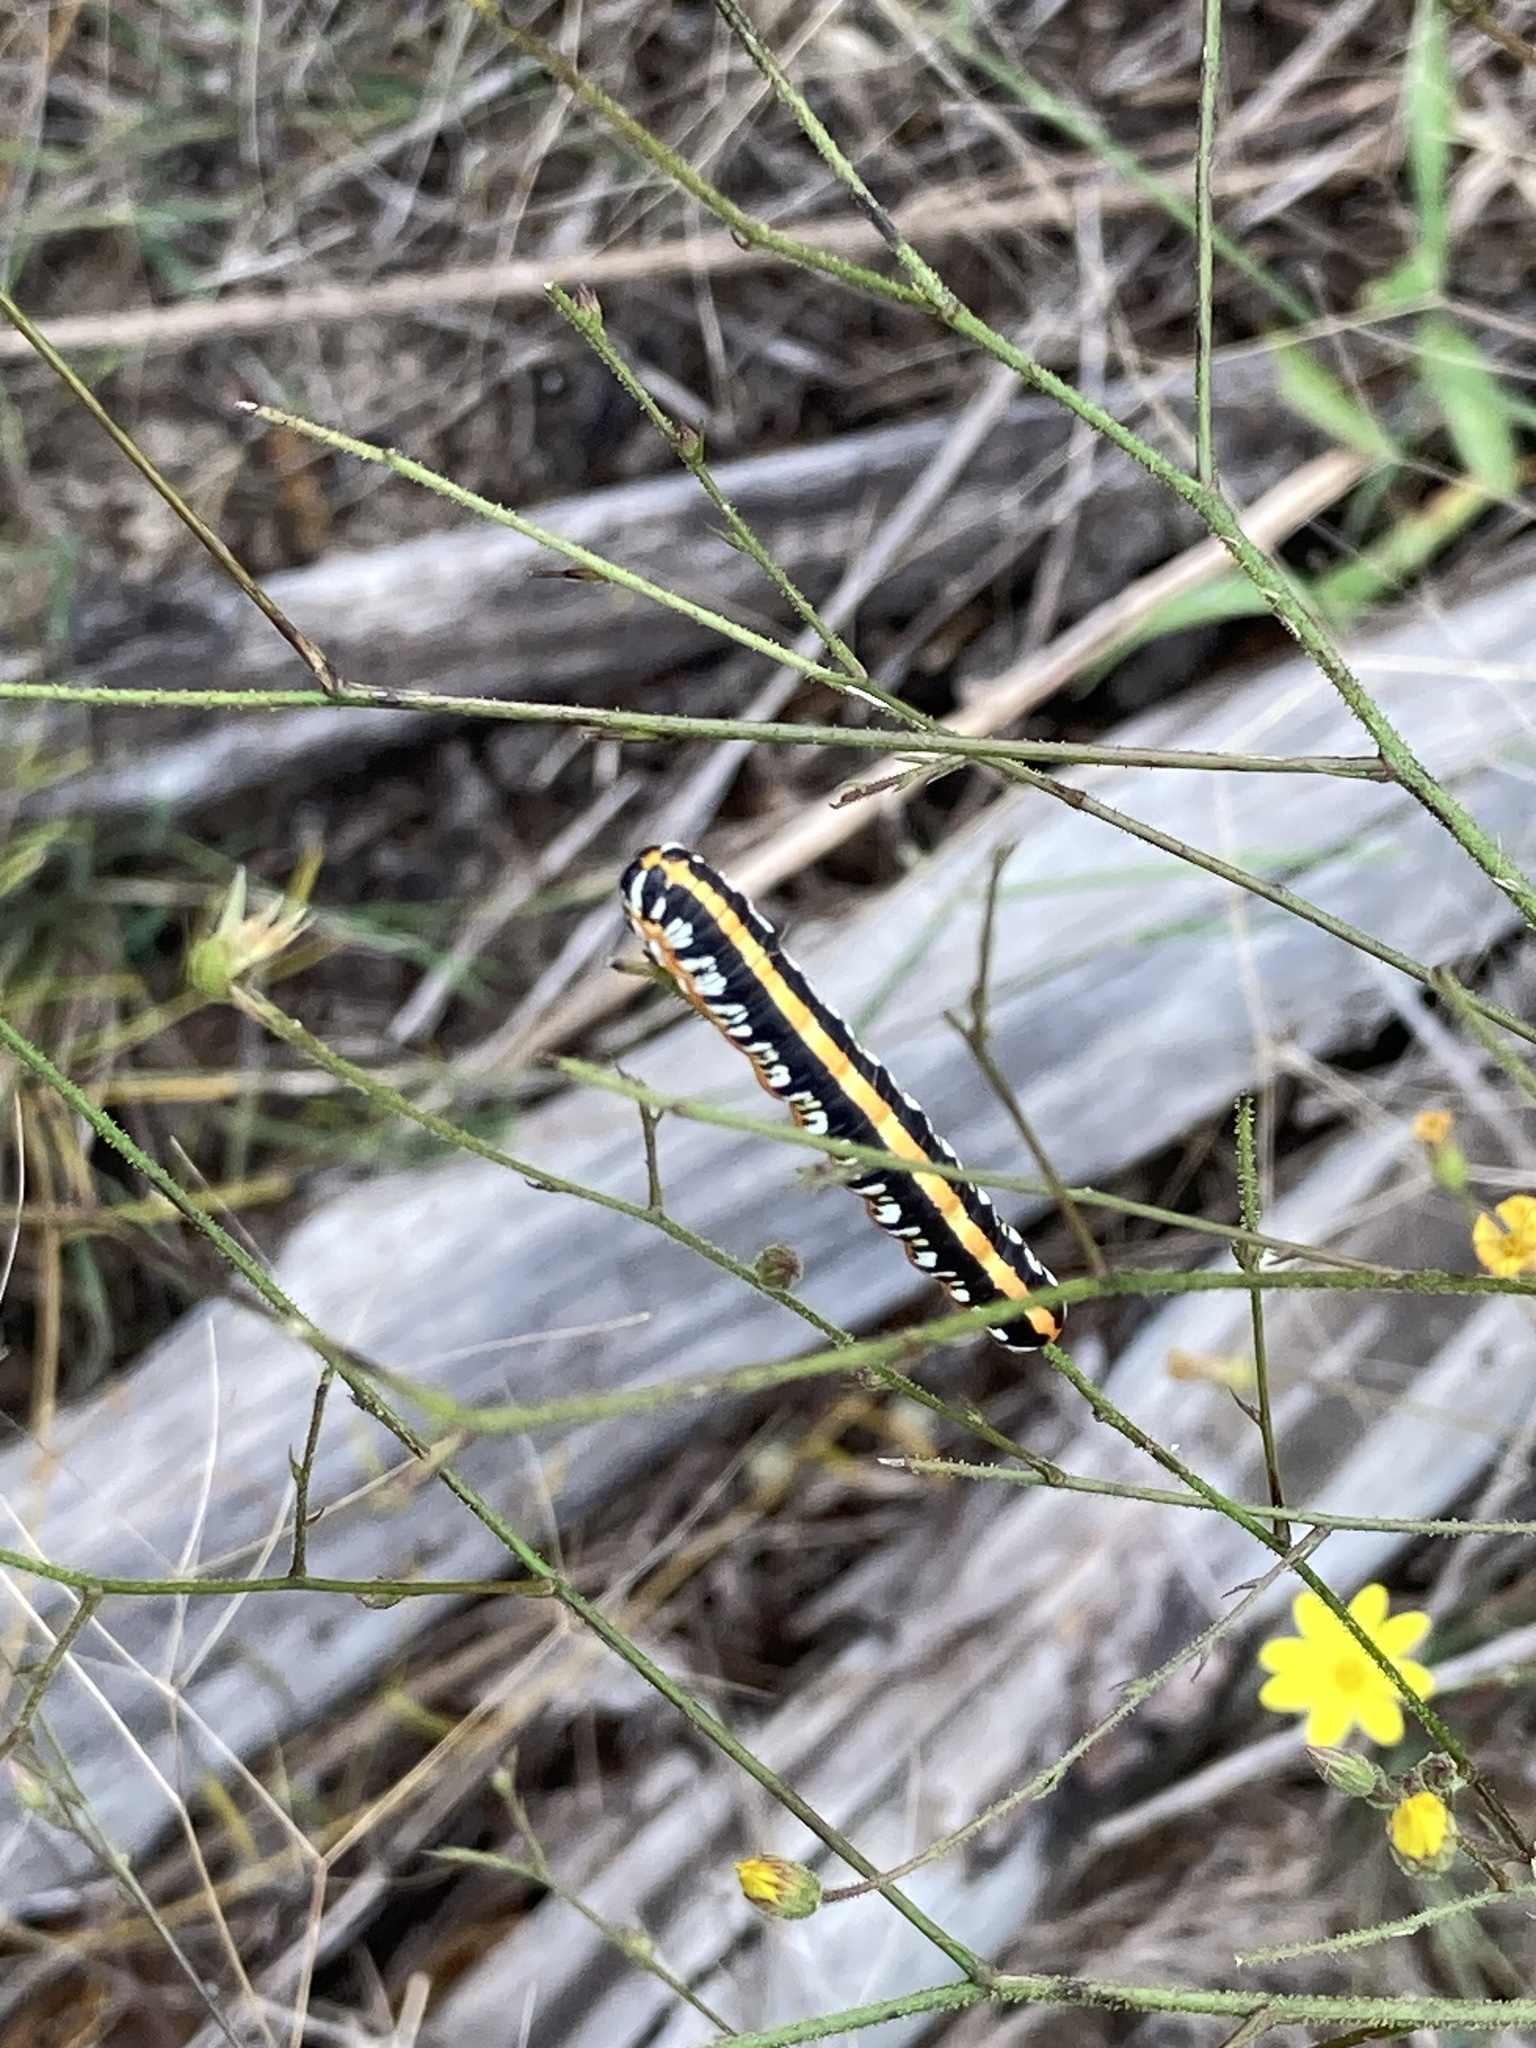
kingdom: Animalia
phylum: Arthropoda
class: Insecta
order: Lepidoptera
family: Noctuidae
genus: Cucullia
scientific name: Cucullia alfarata
